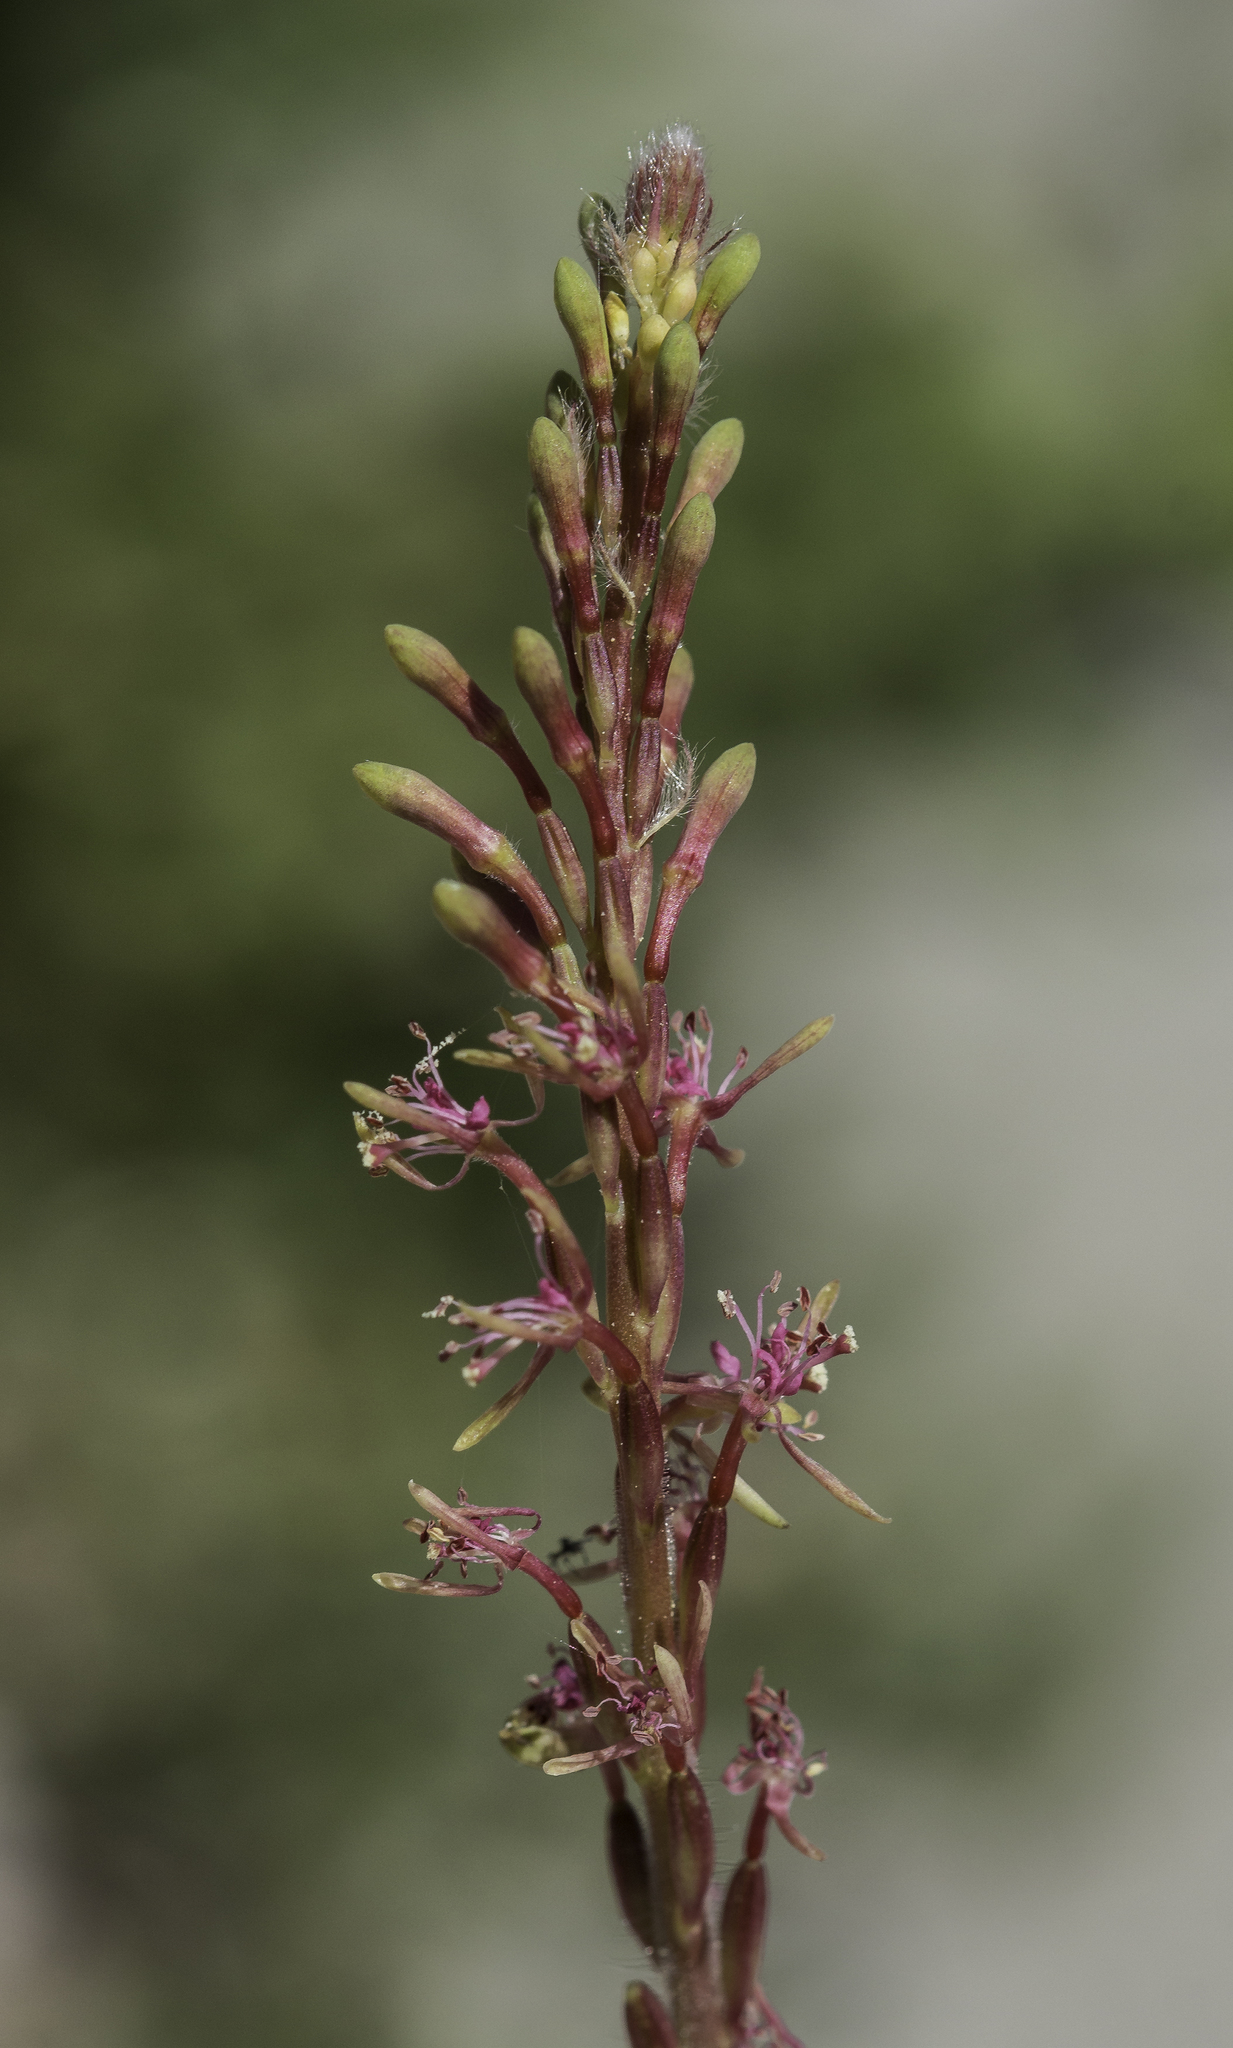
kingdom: Plantae
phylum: Tracheophyta
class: Magnoliopsida
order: Myrtales
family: Onagraceae
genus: Oenothera
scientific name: Oenothera curtiflora
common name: Velvetweed
